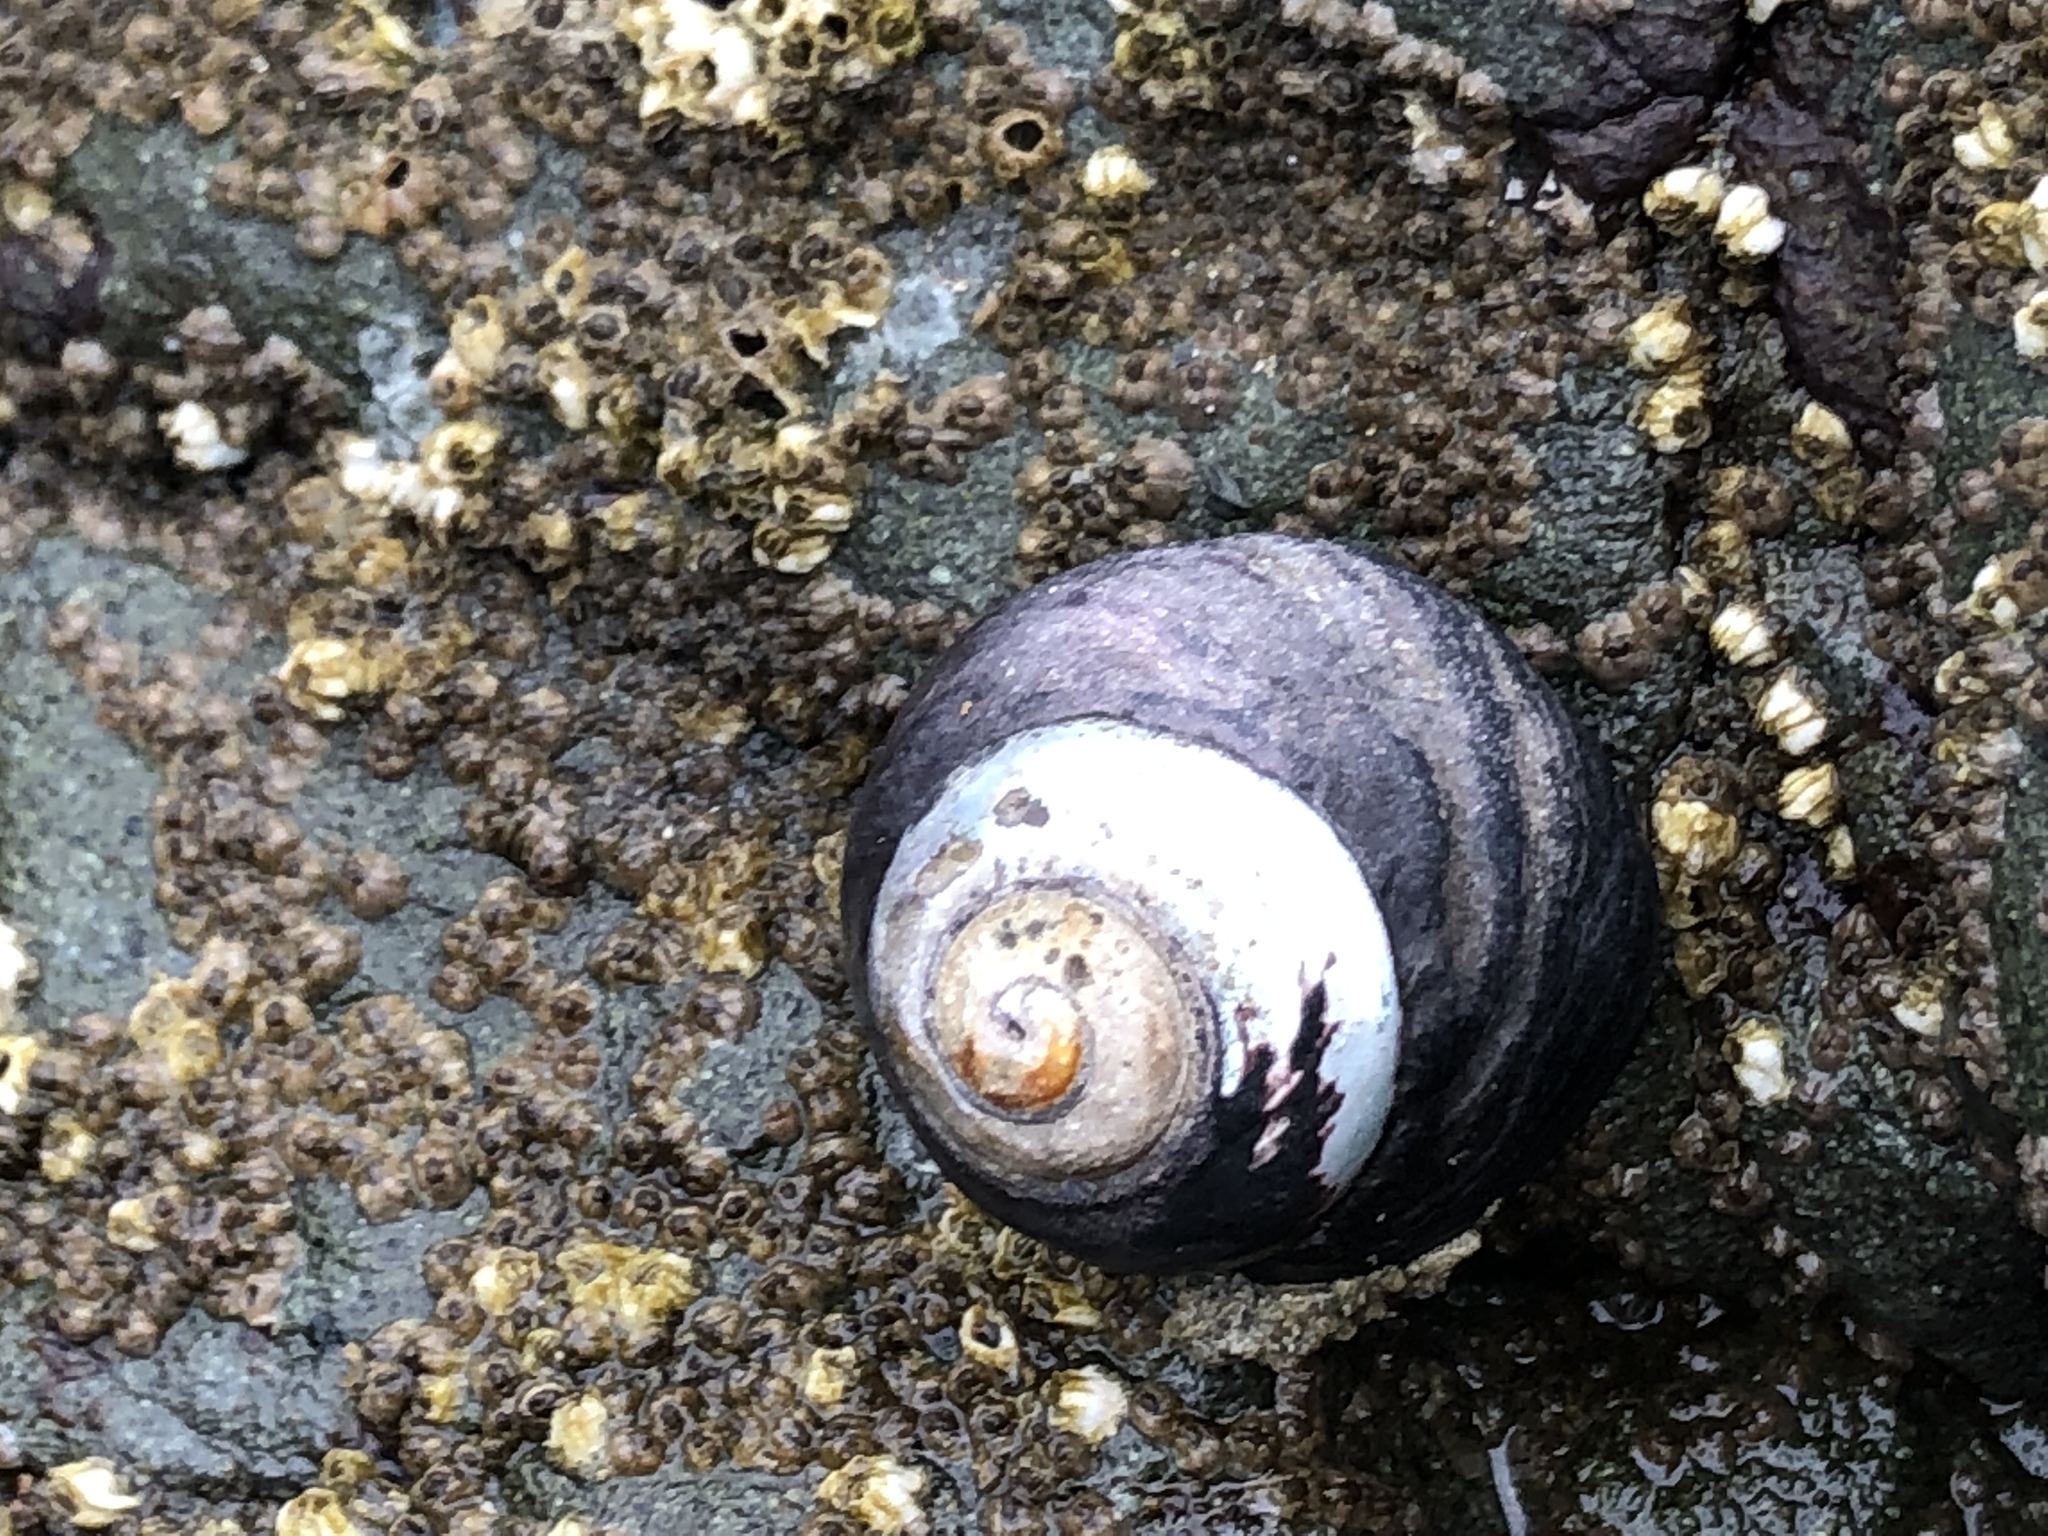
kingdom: Animalia
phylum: Mollusca
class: Gastropoda
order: Trochida
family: Tegulidae
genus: Tegula
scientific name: Tegula funebralis
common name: Black tegula
